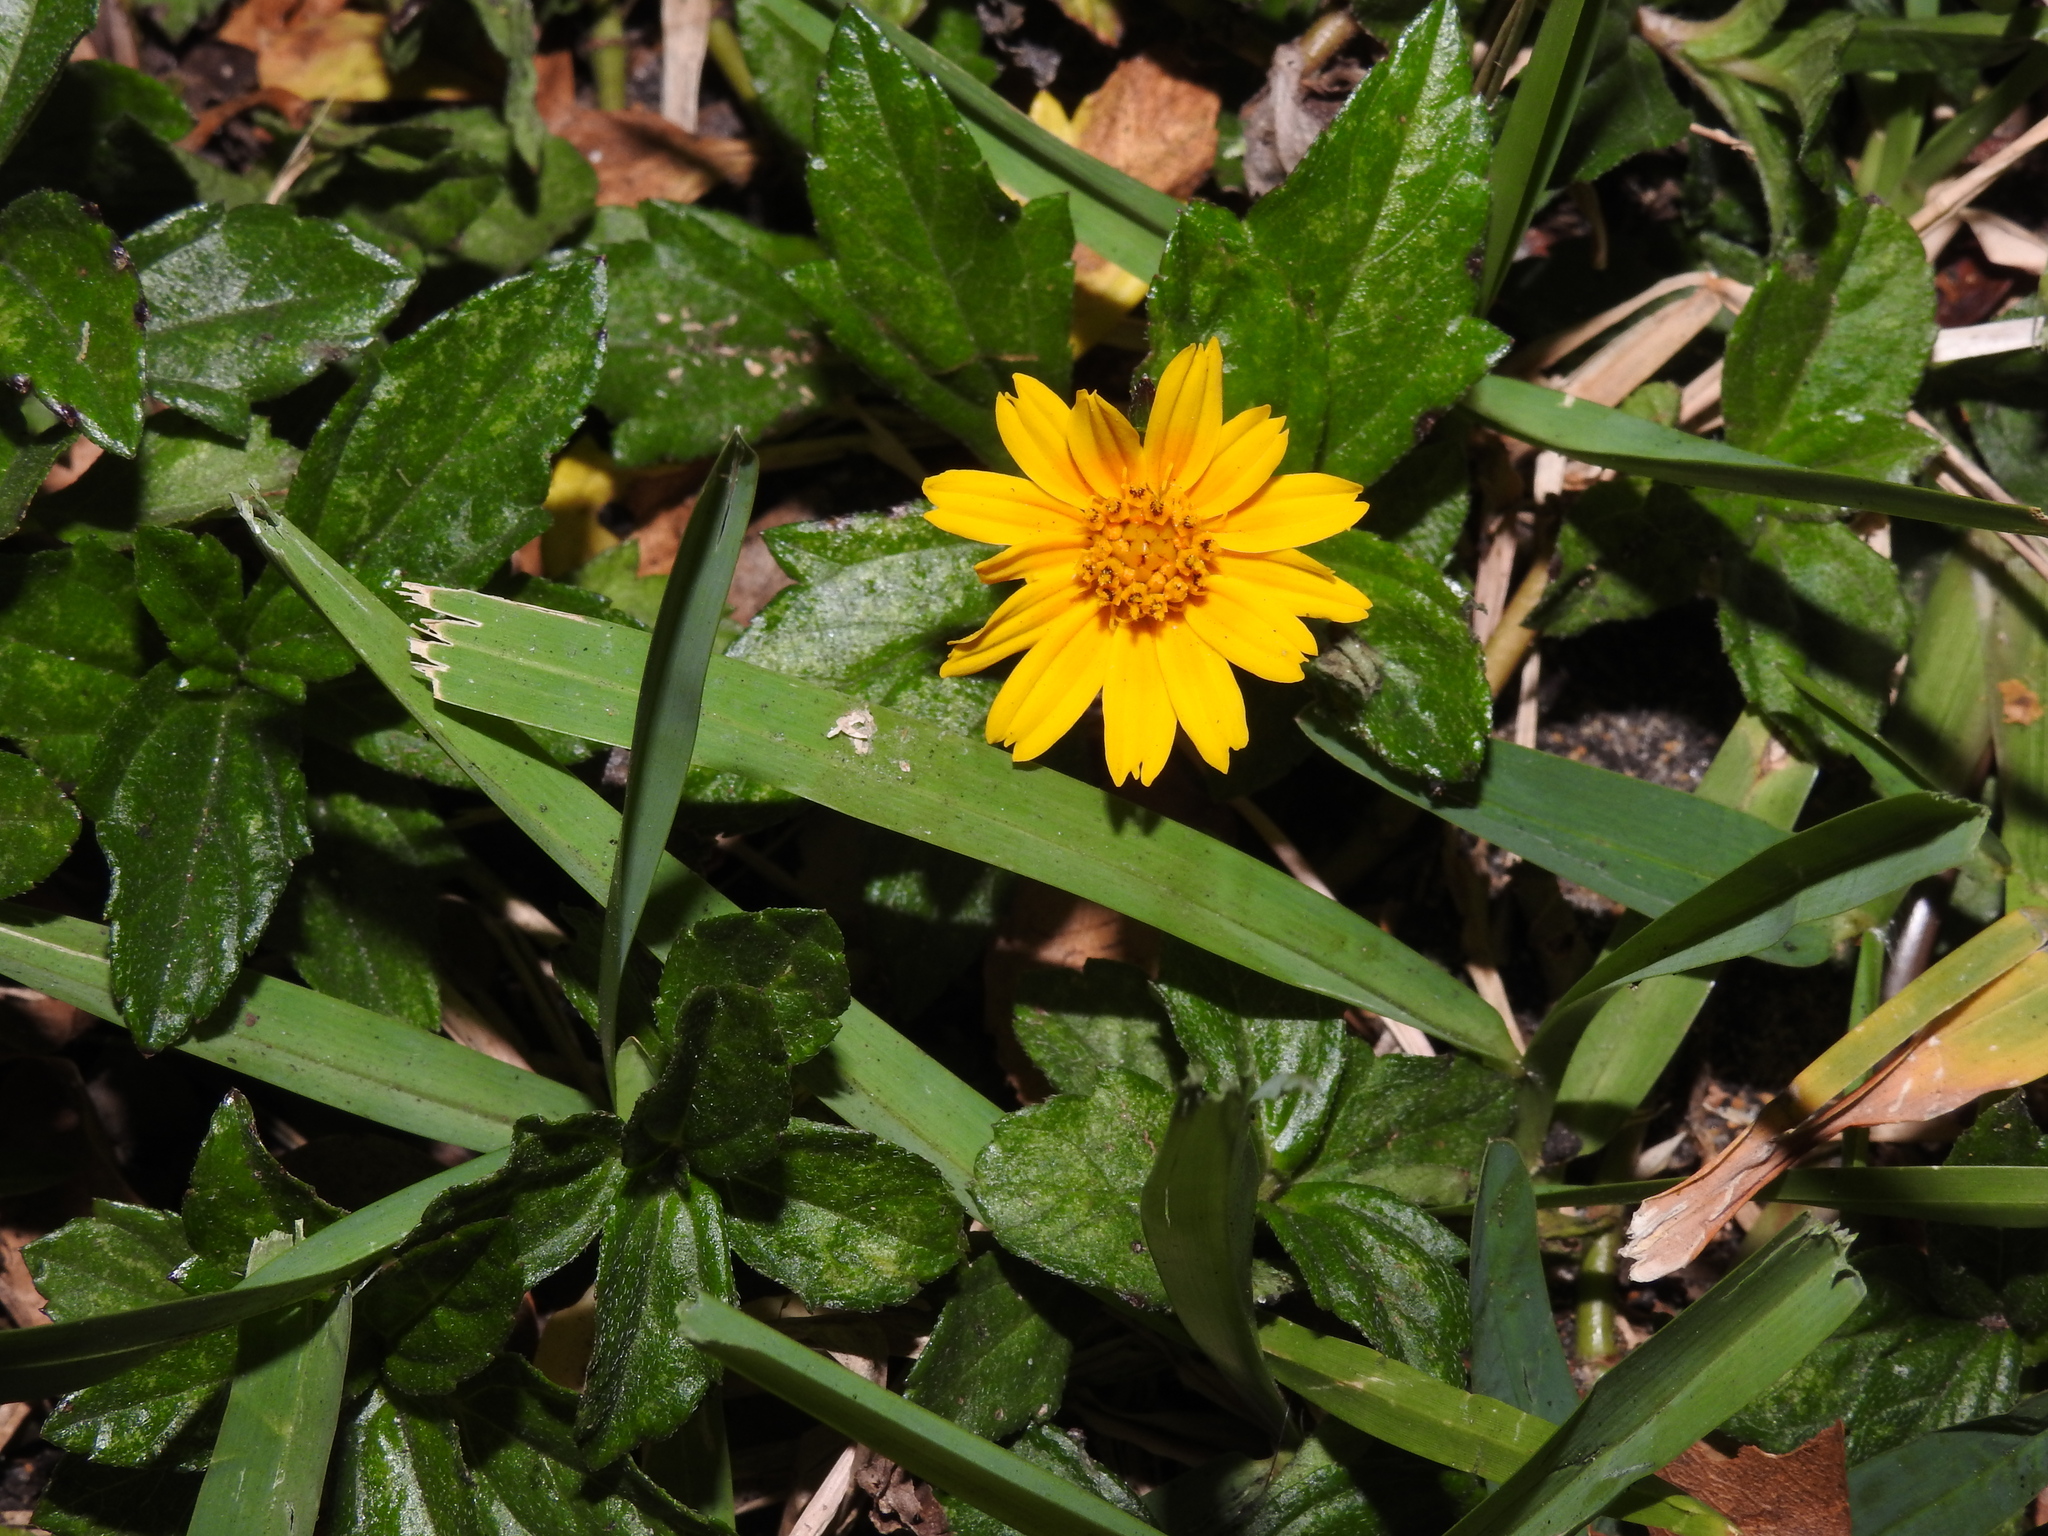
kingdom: Plantae
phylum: Tracheophyta
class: Magnoliopsida
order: Asterales
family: Asteraceae
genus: Sphagneticola
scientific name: Sphagneticola trilobata
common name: Bay biscayne creeping-oxeye
